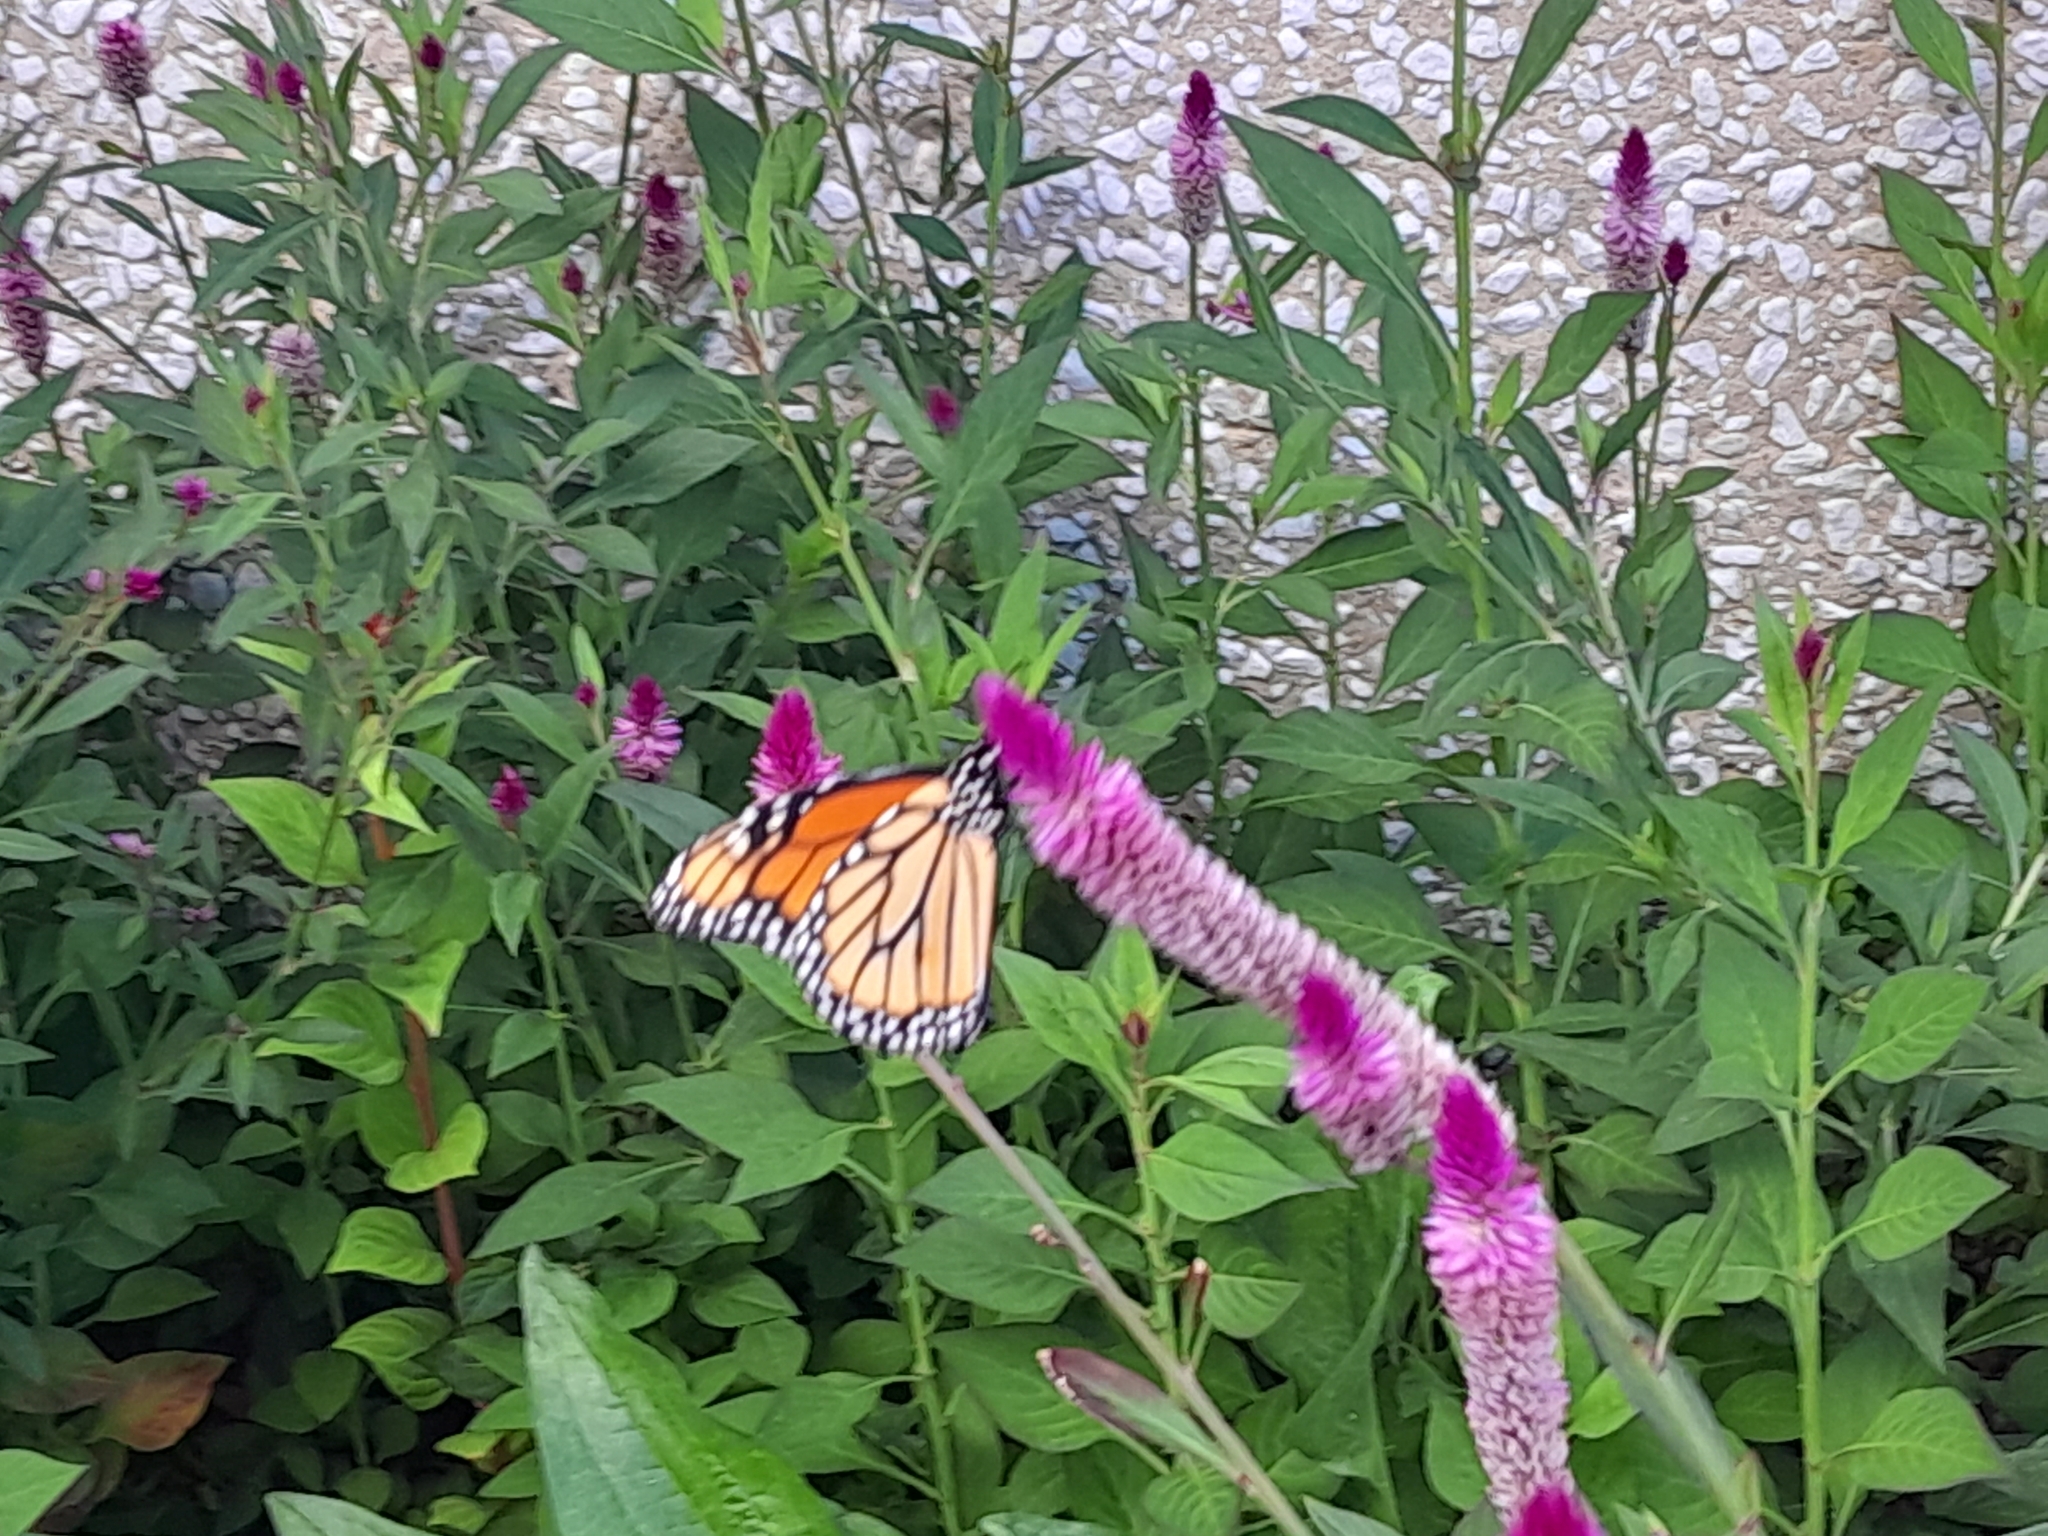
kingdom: Animalia
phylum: Arthropoda
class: Insecta
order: Lepidoptera
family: Nymphalidae
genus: Danaus
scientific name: Danaus plexippus
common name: Monarch
